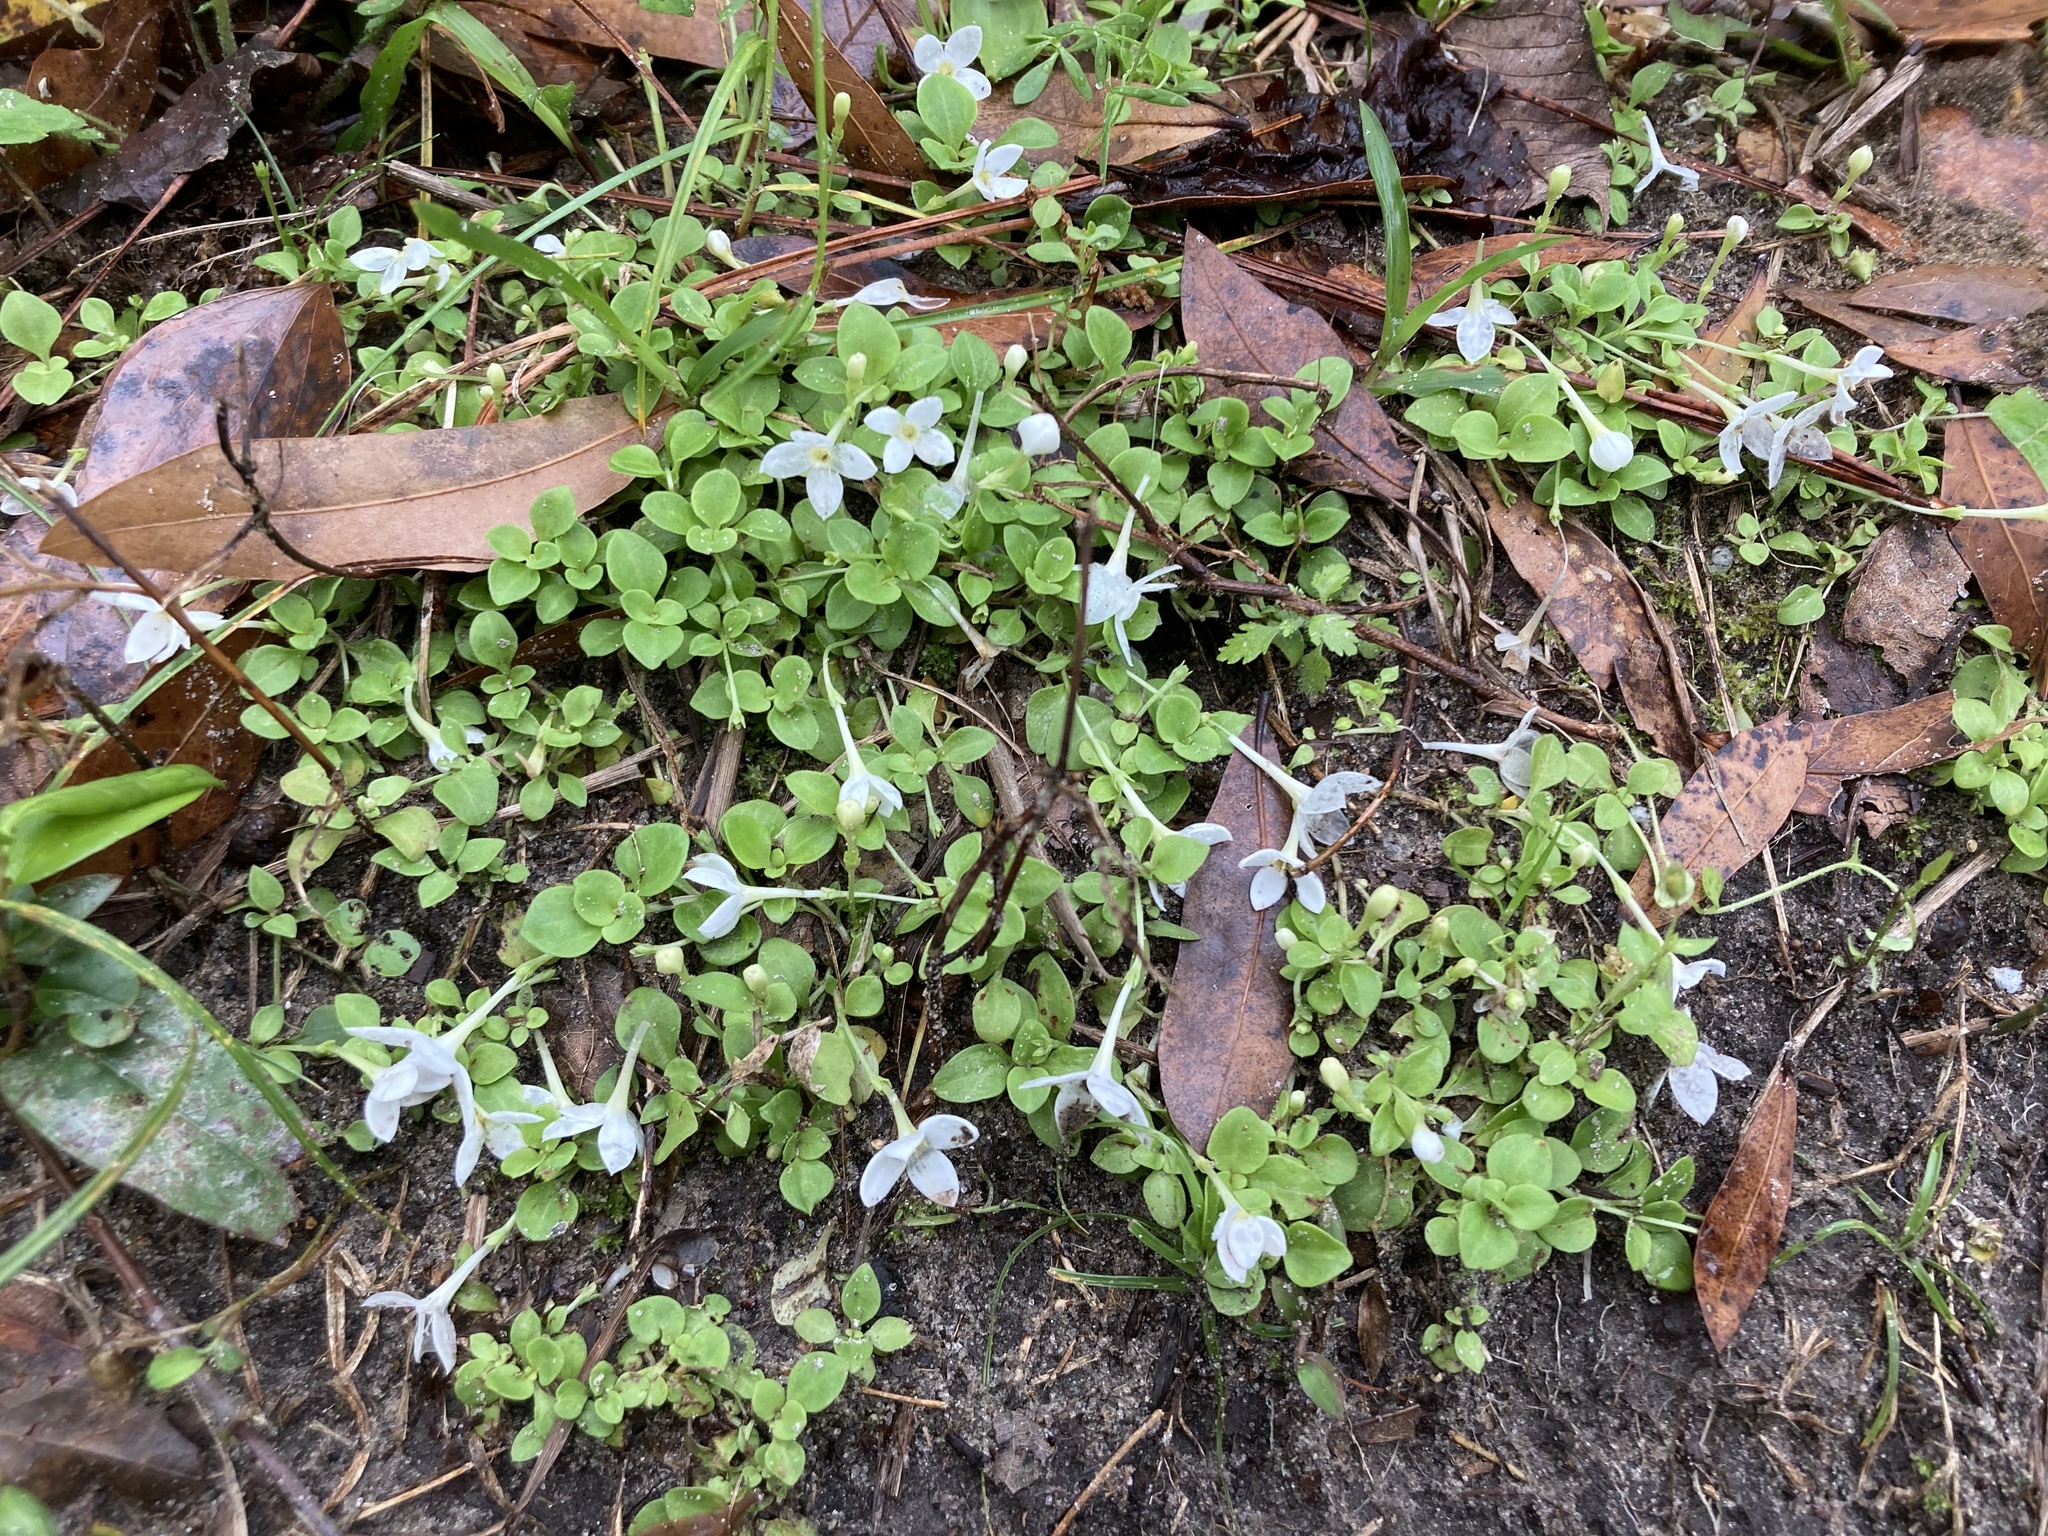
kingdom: Plantae
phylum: Tracheophyta
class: Magnoliopsida
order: Gentianales
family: Rubiaceae
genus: Houstonia
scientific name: Houstonia procumbens
